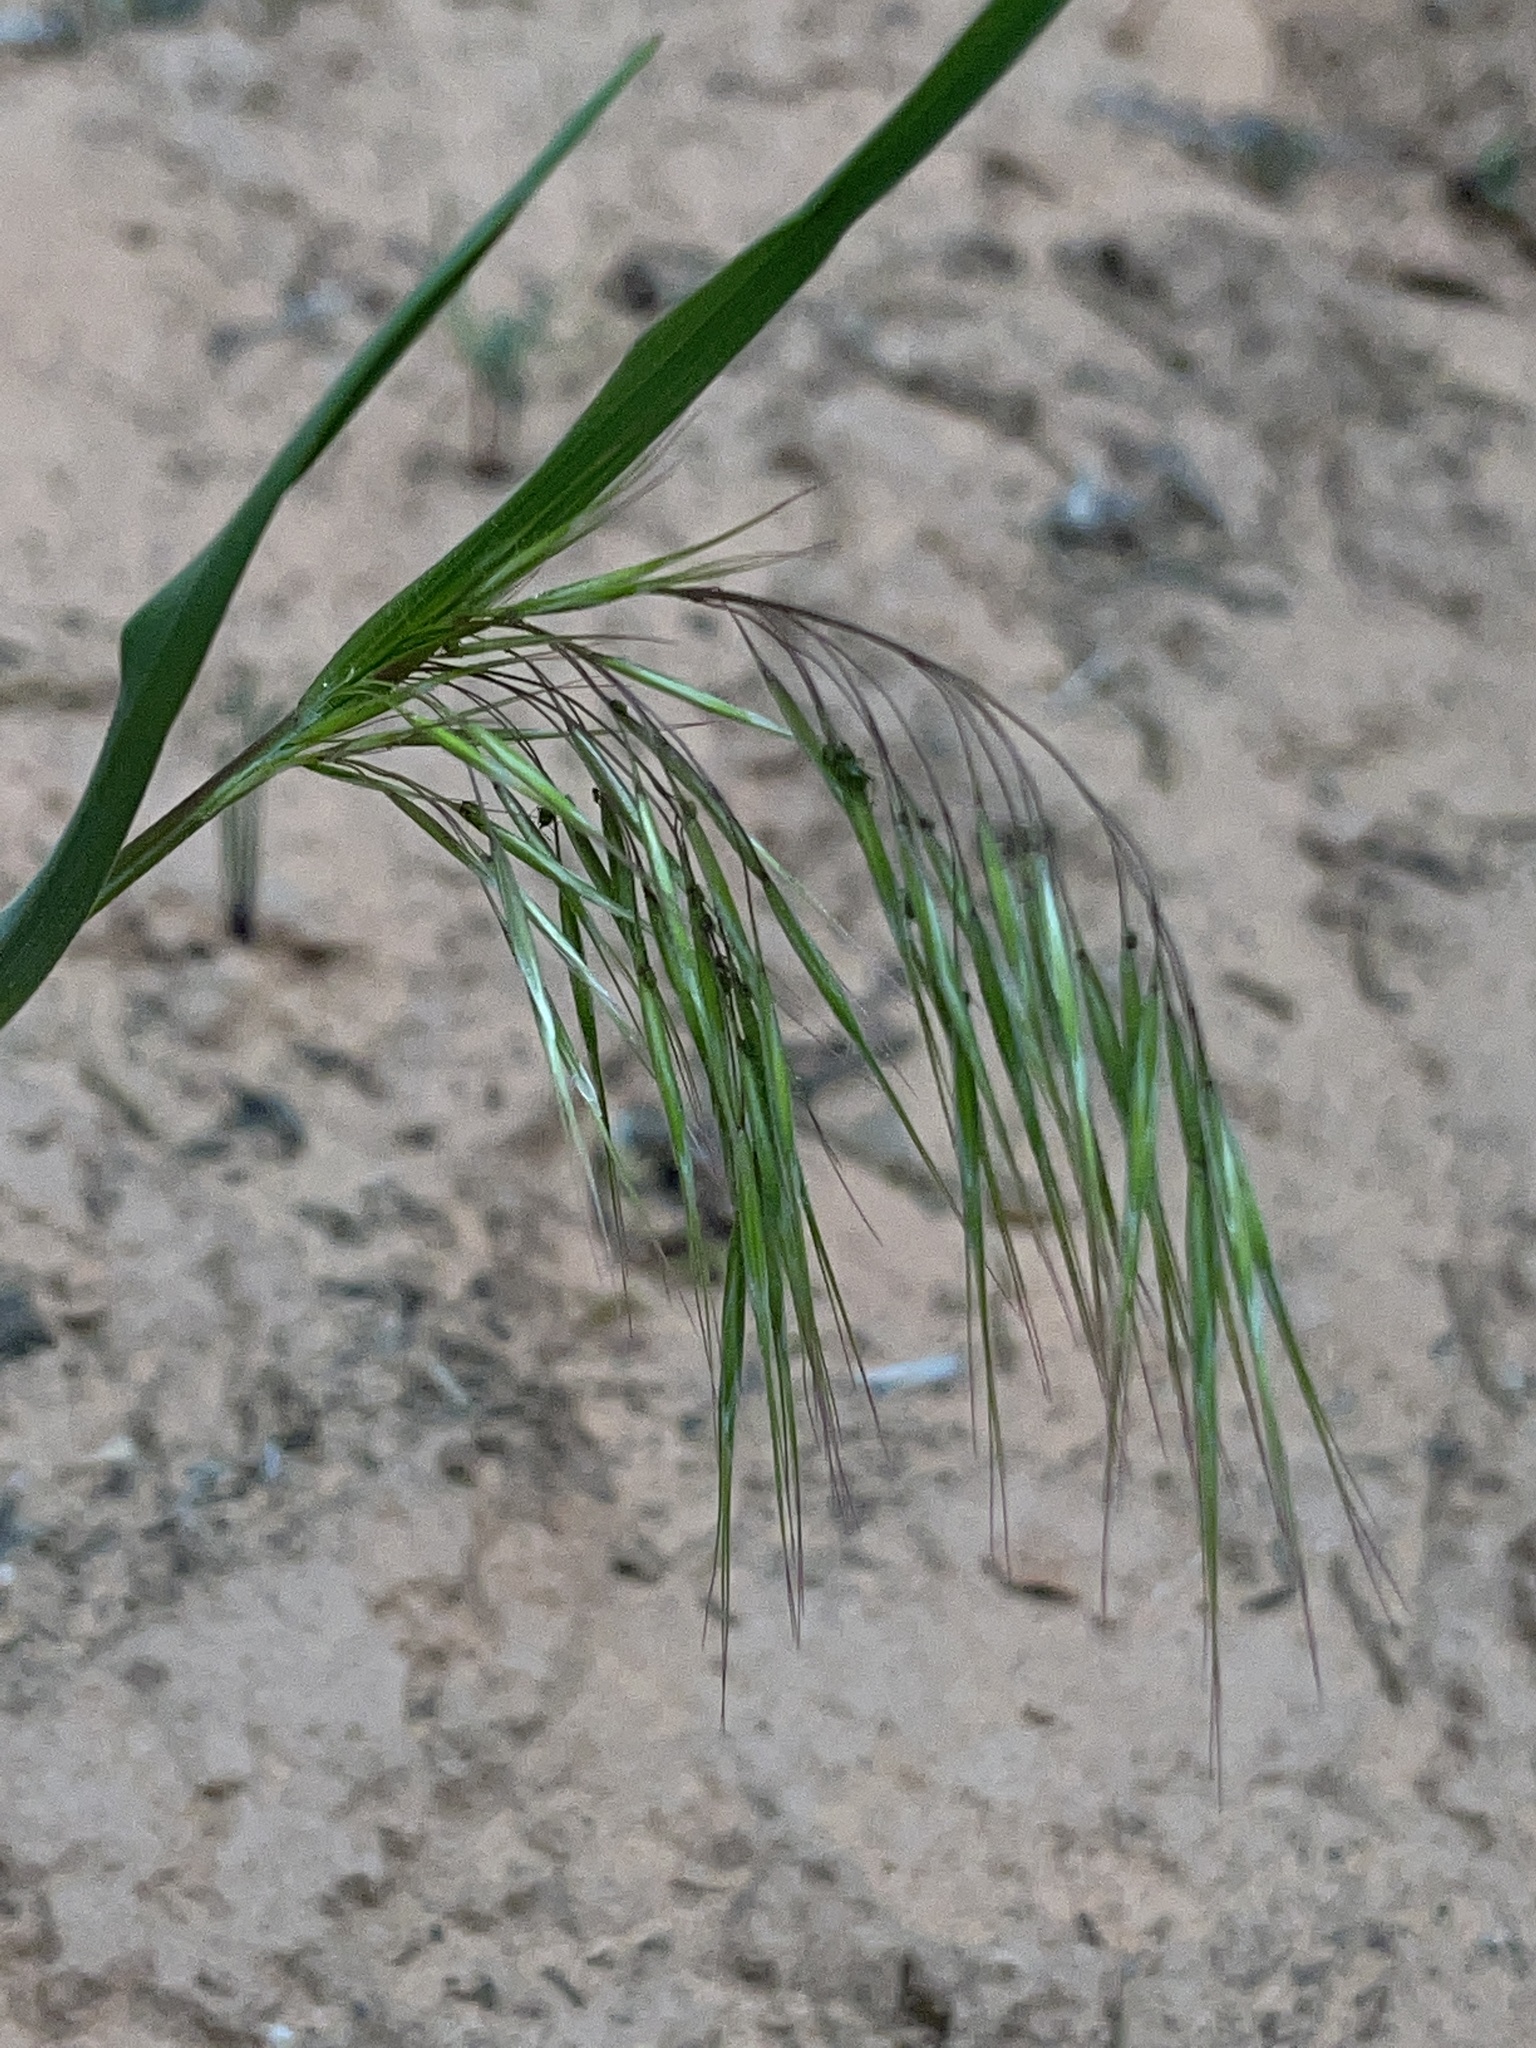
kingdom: Plantae
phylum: Tracheophyta
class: Liliopsida
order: Poales
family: Poaceae
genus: Bromus
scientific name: Bromus tectorum
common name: Cheatgrass
